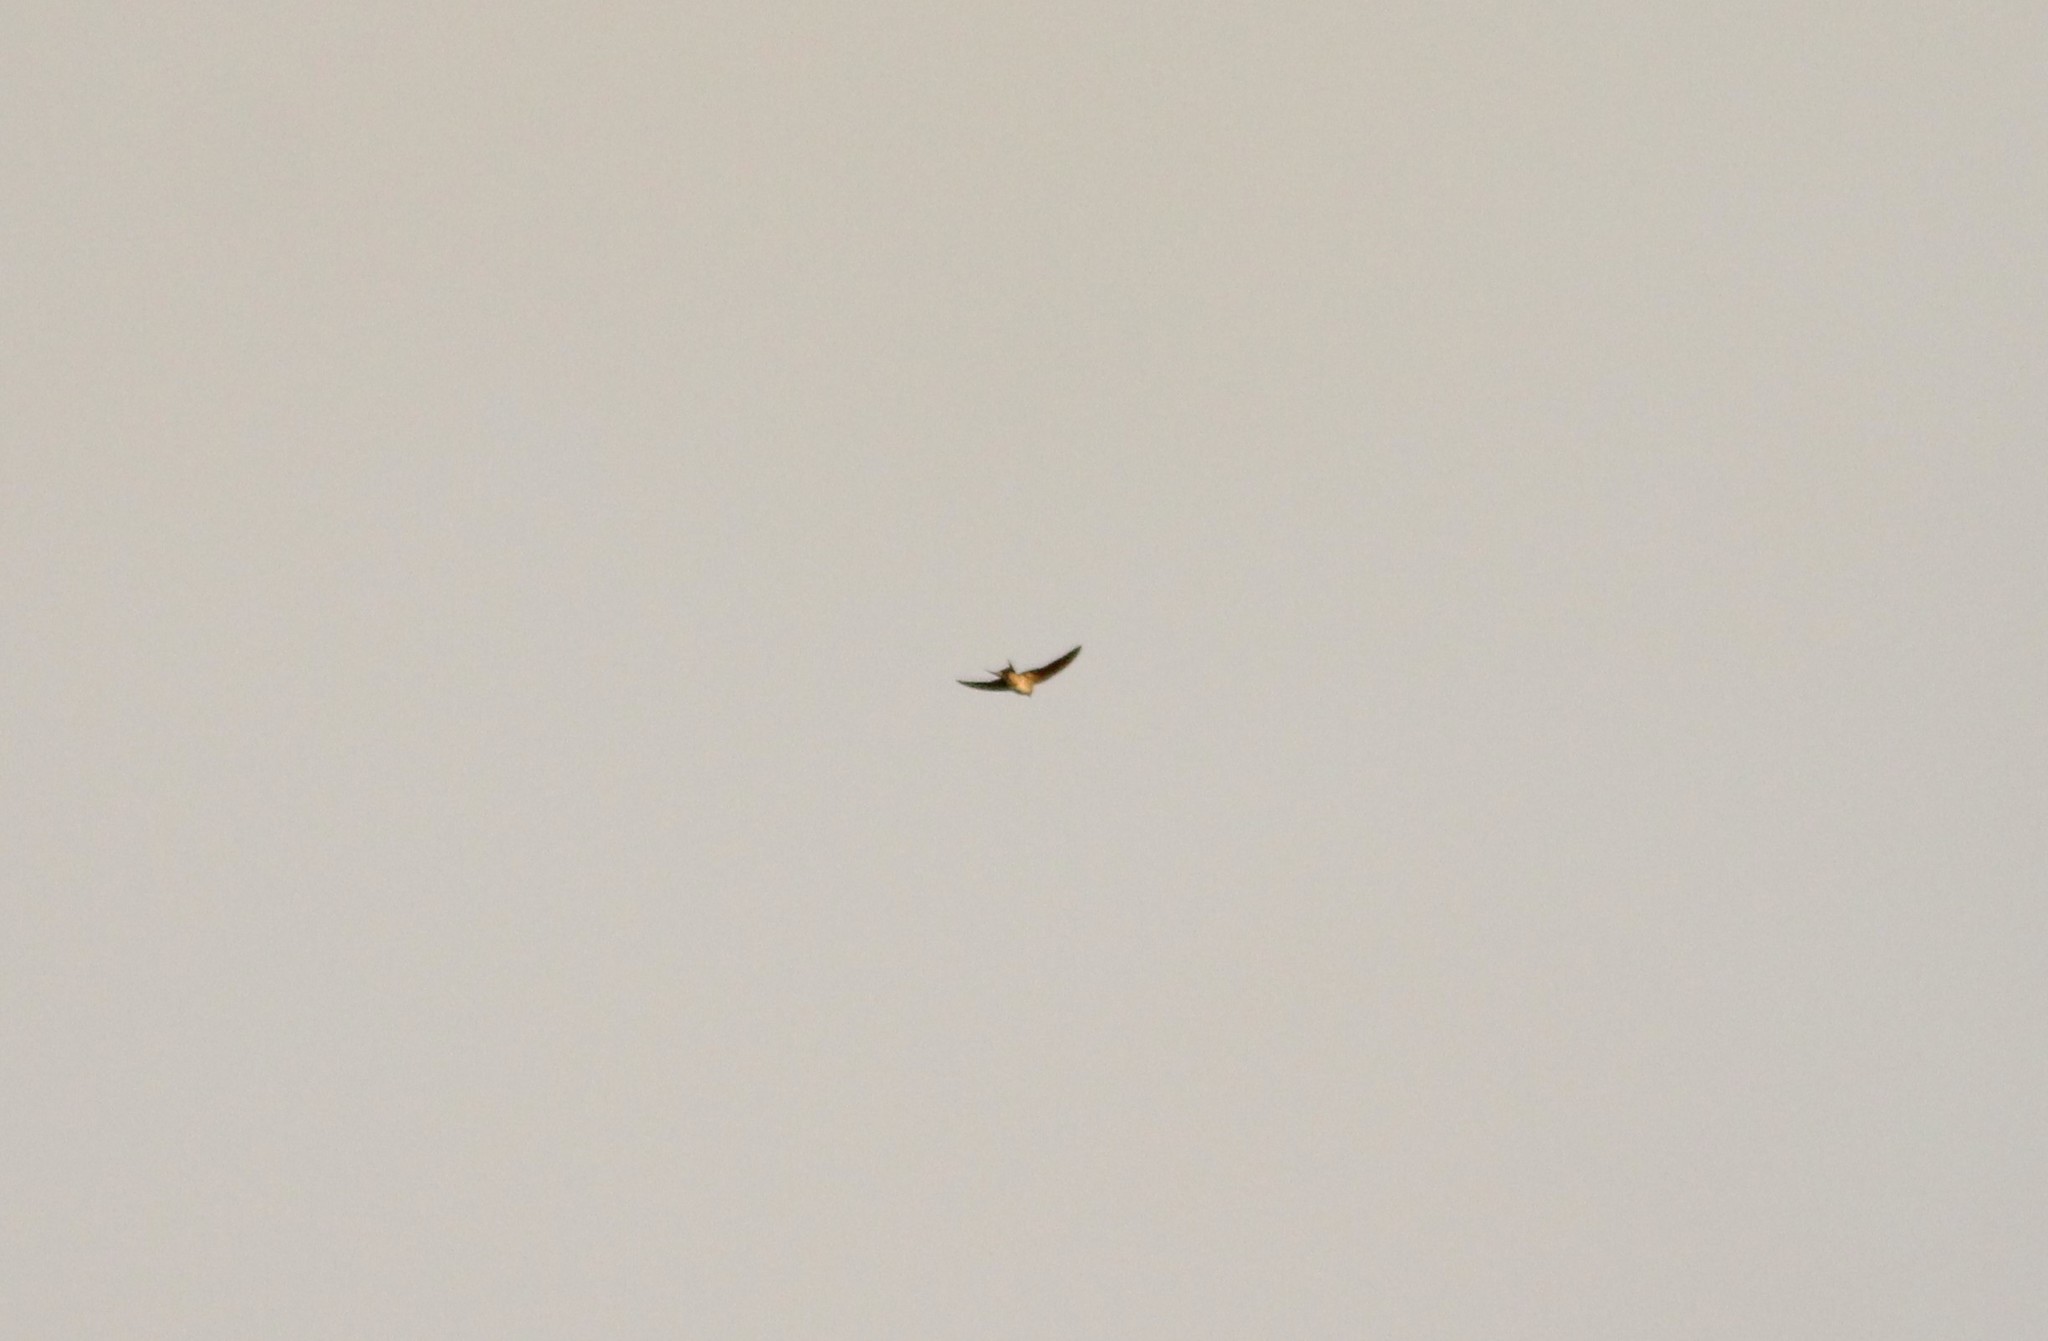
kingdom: Animalia
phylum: Chordata
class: Aves
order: Passeriformes
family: Hirundinidae
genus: Hirundo
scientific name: Hirundo neoxena
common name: Welcome swallow
